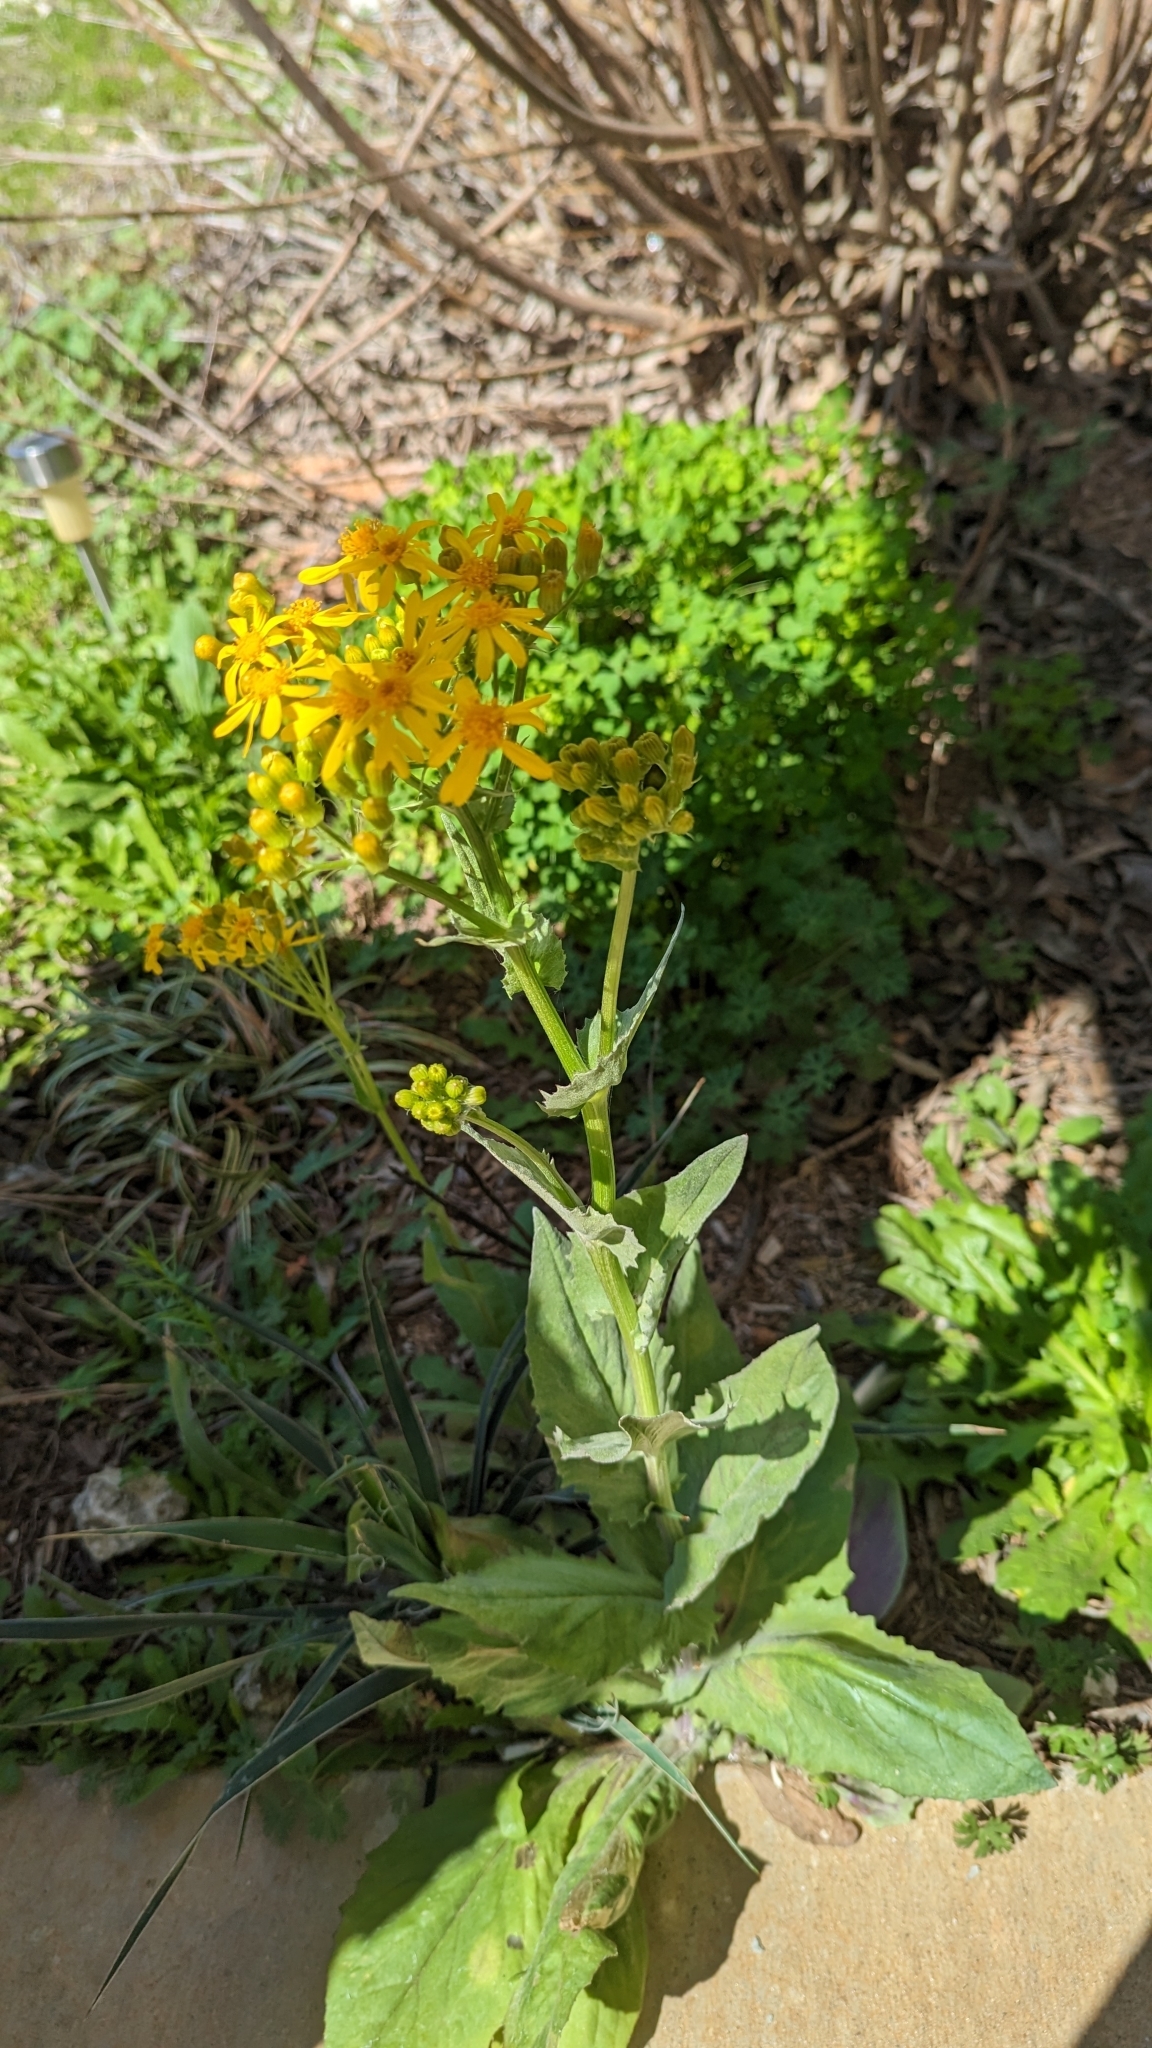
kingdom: Plantae
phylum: Tracheophyta
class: Magnoliopsida
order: Asterales
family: Asteraceae
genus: Senecio
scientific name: Senecio ampullaceus
